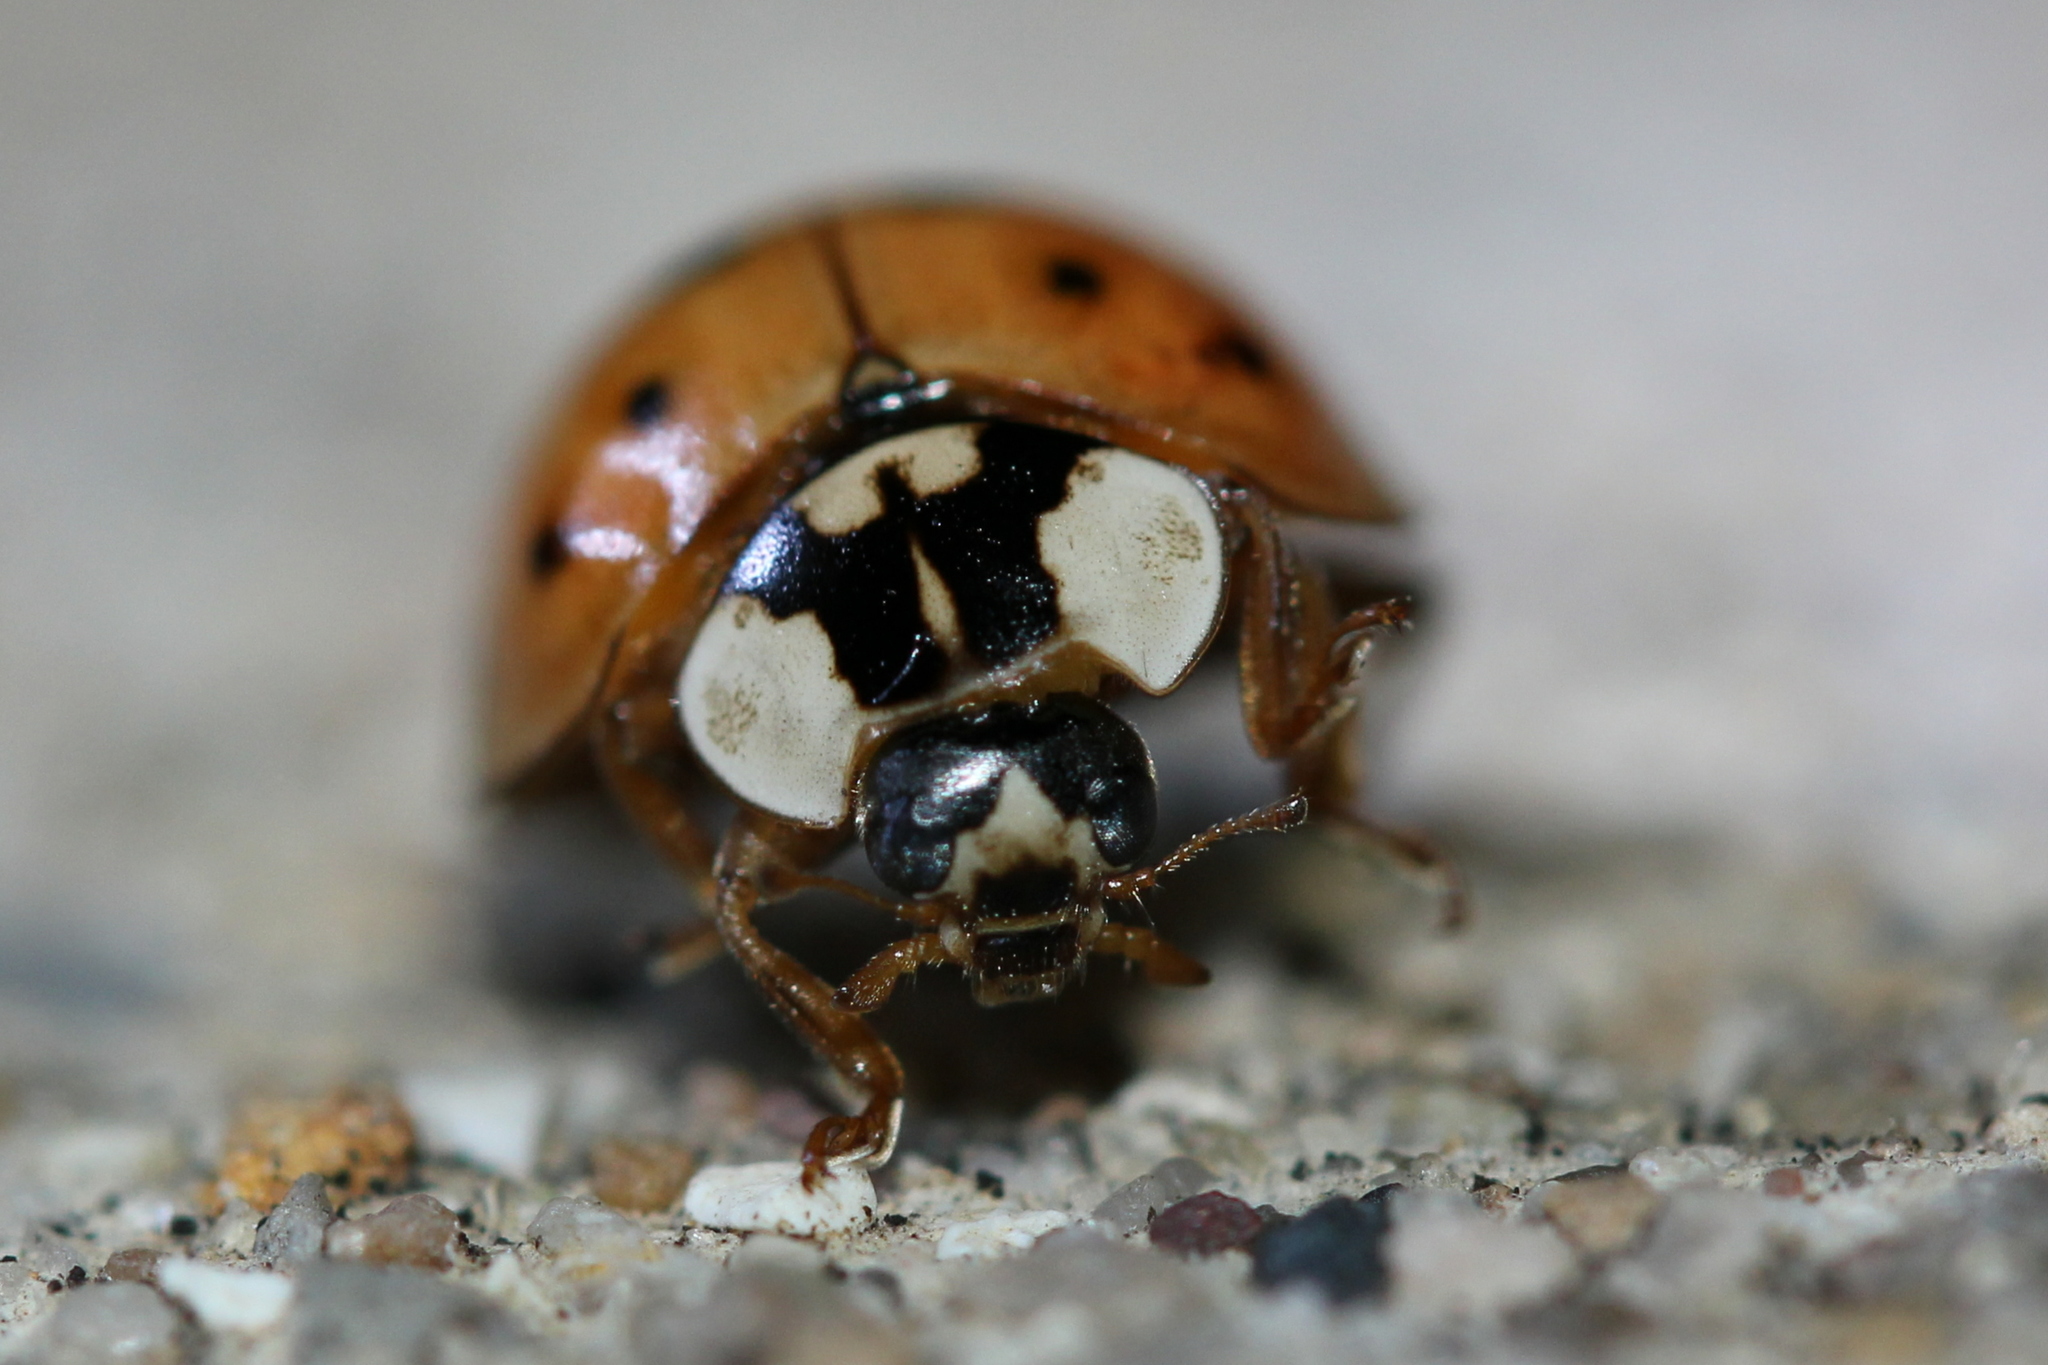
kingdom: Animalia
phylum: Arthropoda
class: Insecta
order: Coleoptera
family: Coccinellidae
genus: Harmonia
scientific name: Harmonia axyridis
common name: Harlequin ladybird
